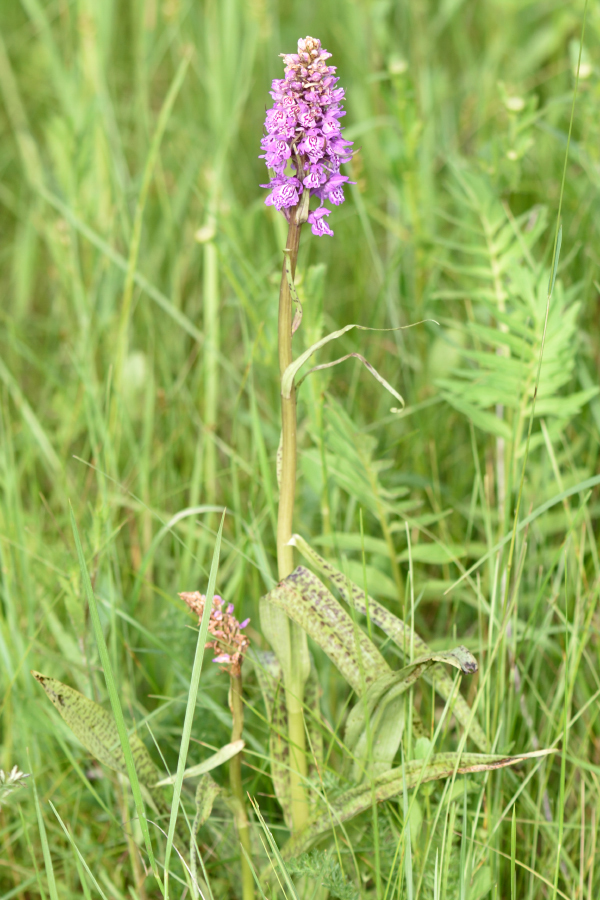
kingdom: Plantae
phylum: Tracheophyta
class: Liliopsida
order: Asparagales
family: Orchidaceae
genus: Dactylorhiza
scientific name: Dactylorhiza majalis
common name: Marsh orchid
